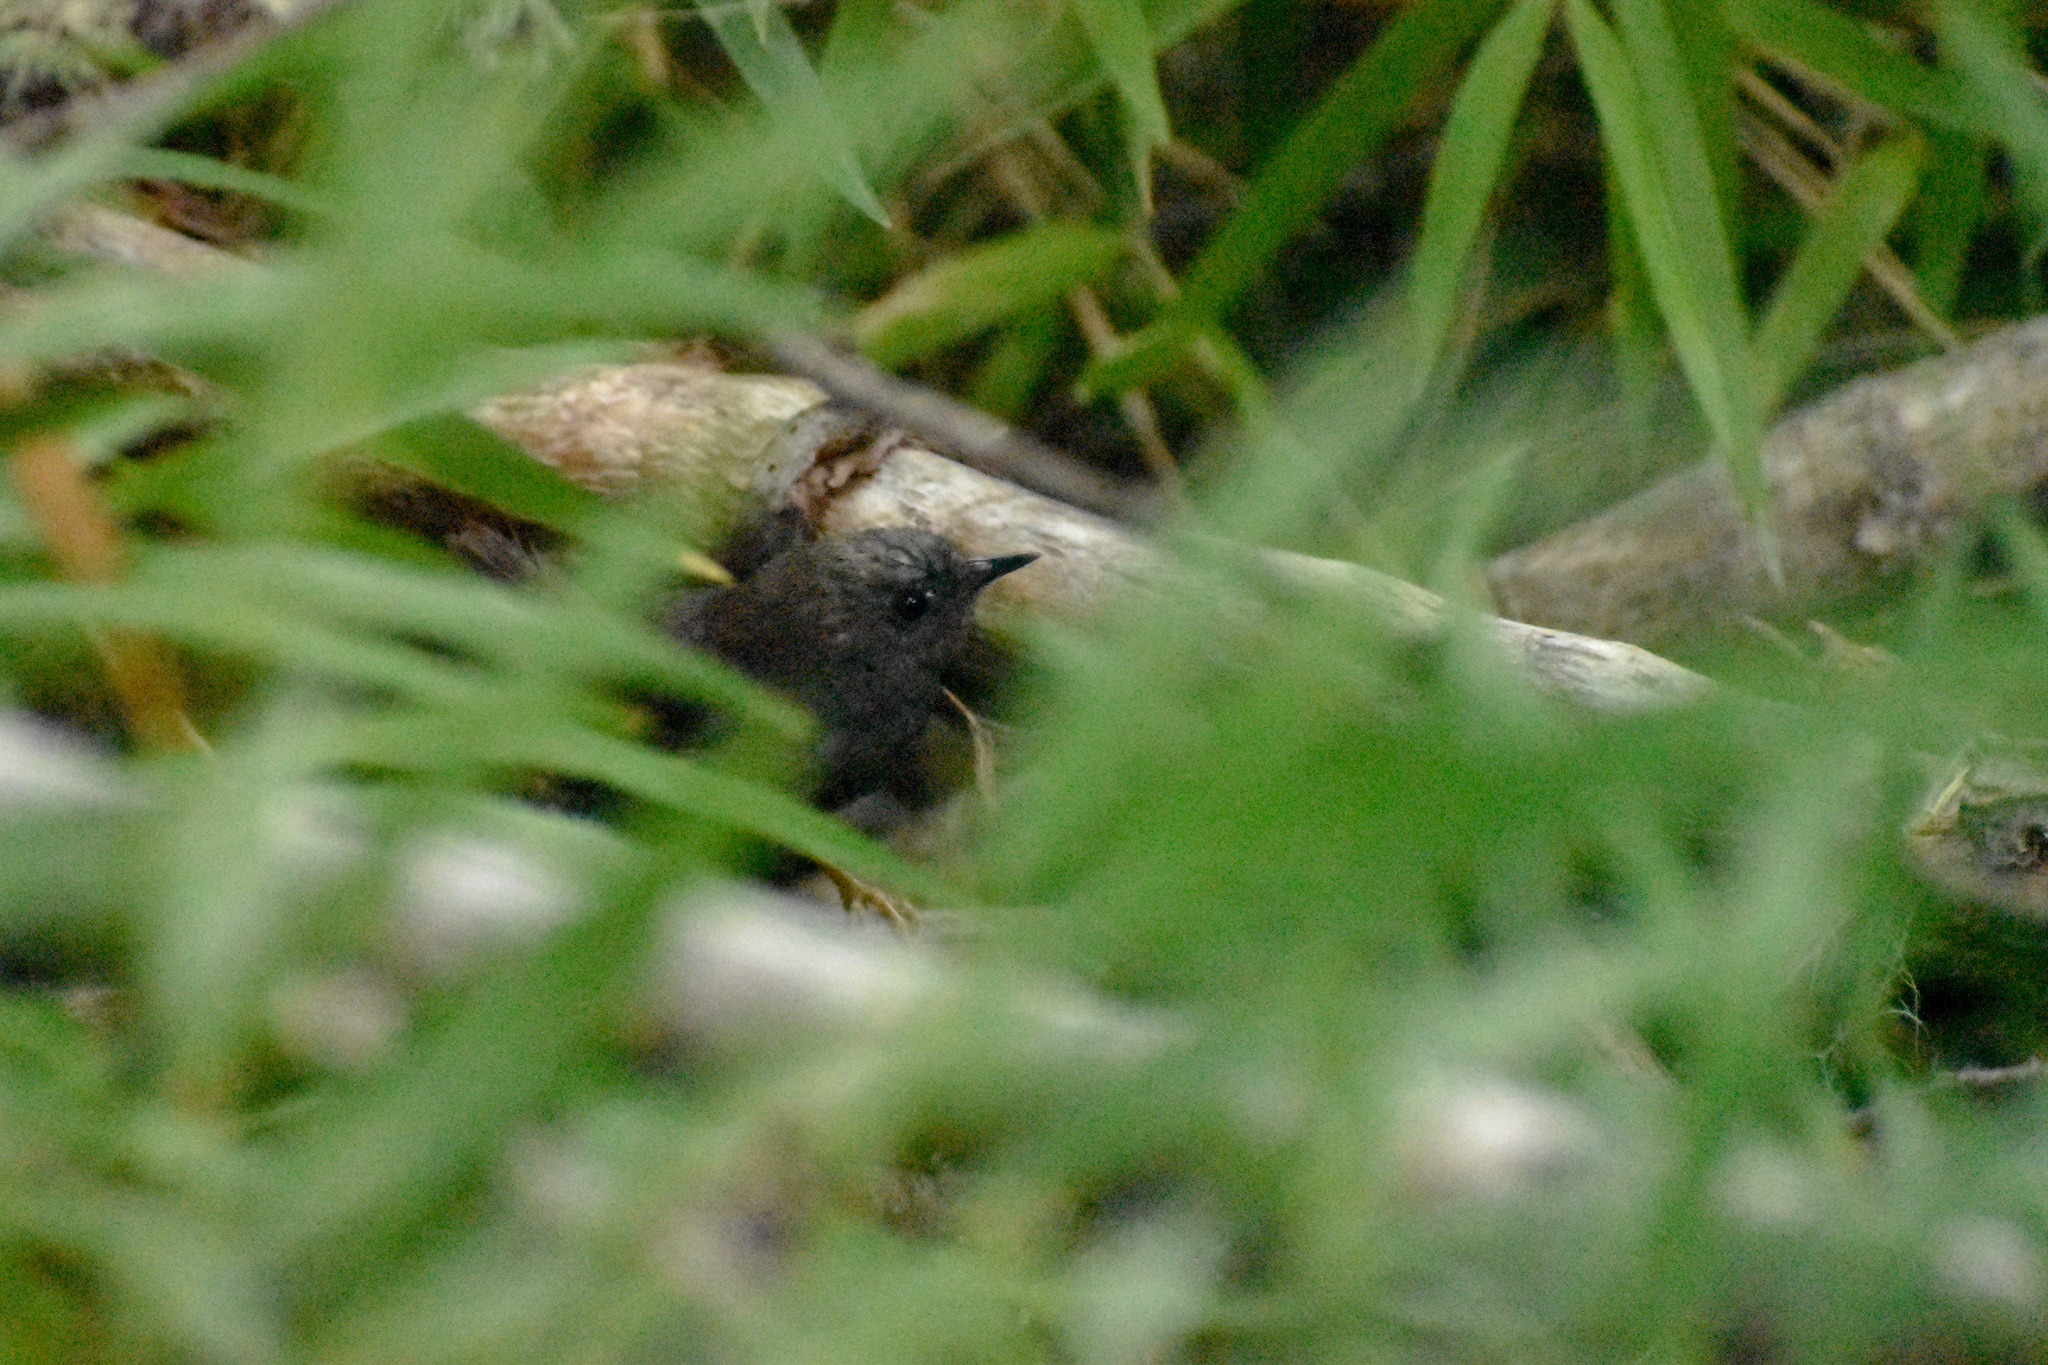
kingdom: Animalia
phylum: Chordata
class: Aves
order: Passeriformes
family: Rhinocryptidae
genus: Scytalopus
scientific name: Scytalopus magellanicus
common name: Magellanic tapaculo
